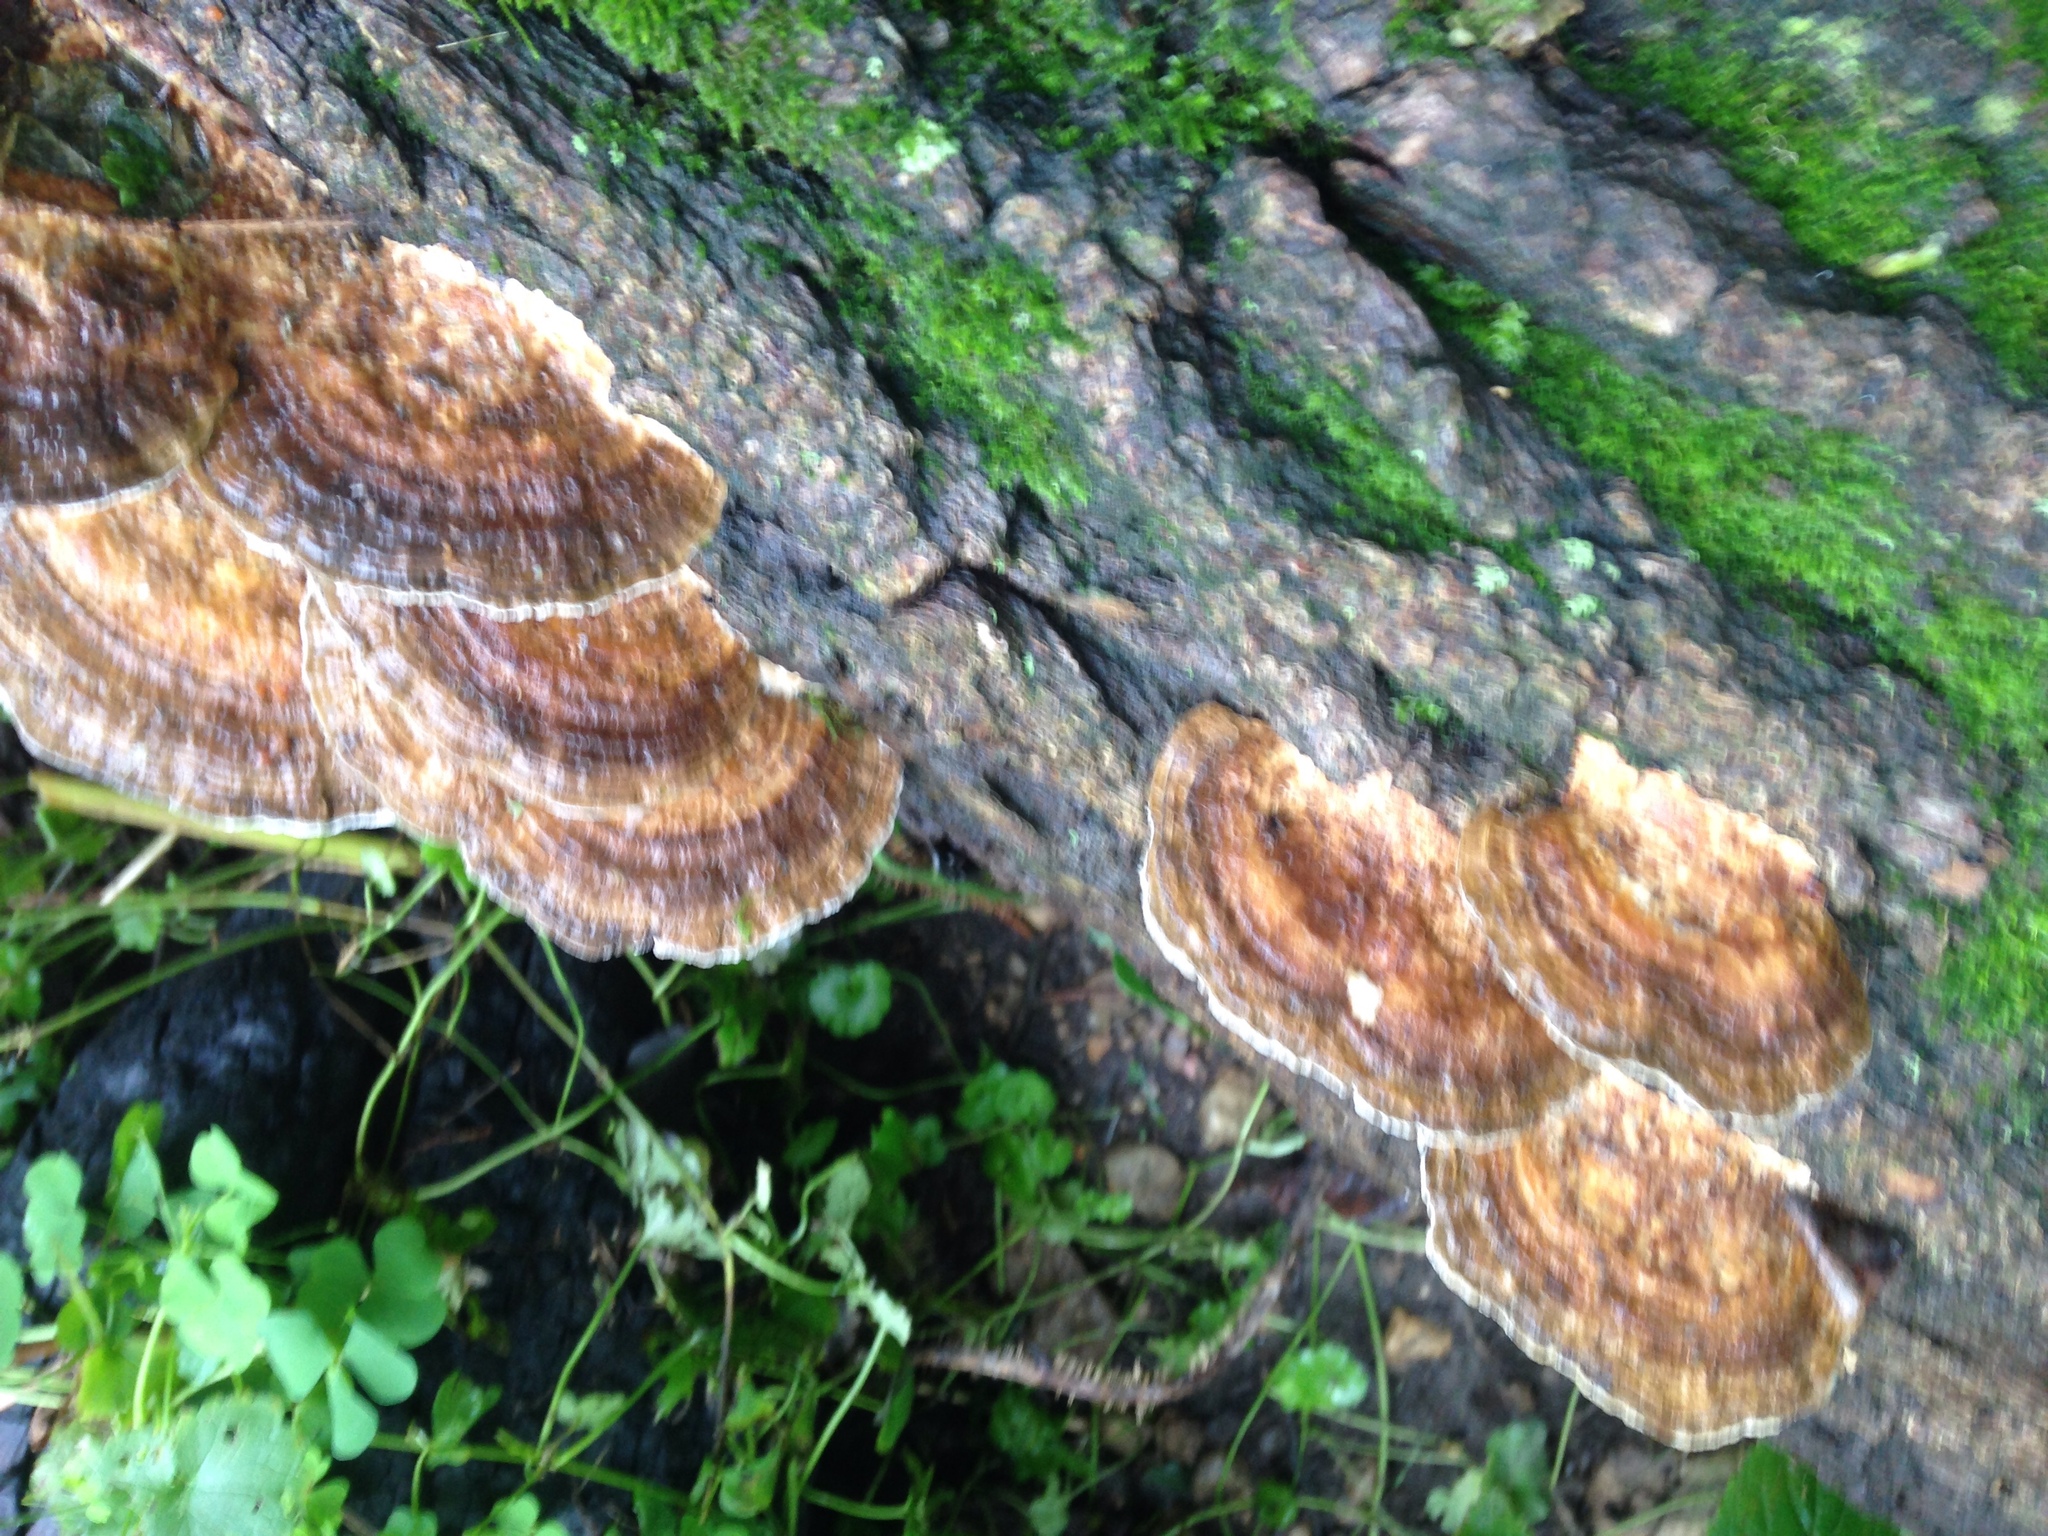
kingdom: Fungi
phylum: Basidiomycota
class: Agaricomycetes
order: Polyporales
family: Polyporaceae
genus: Daedaleopsis
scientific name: Daedaleopsis confragosa
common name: Blushing bracket
